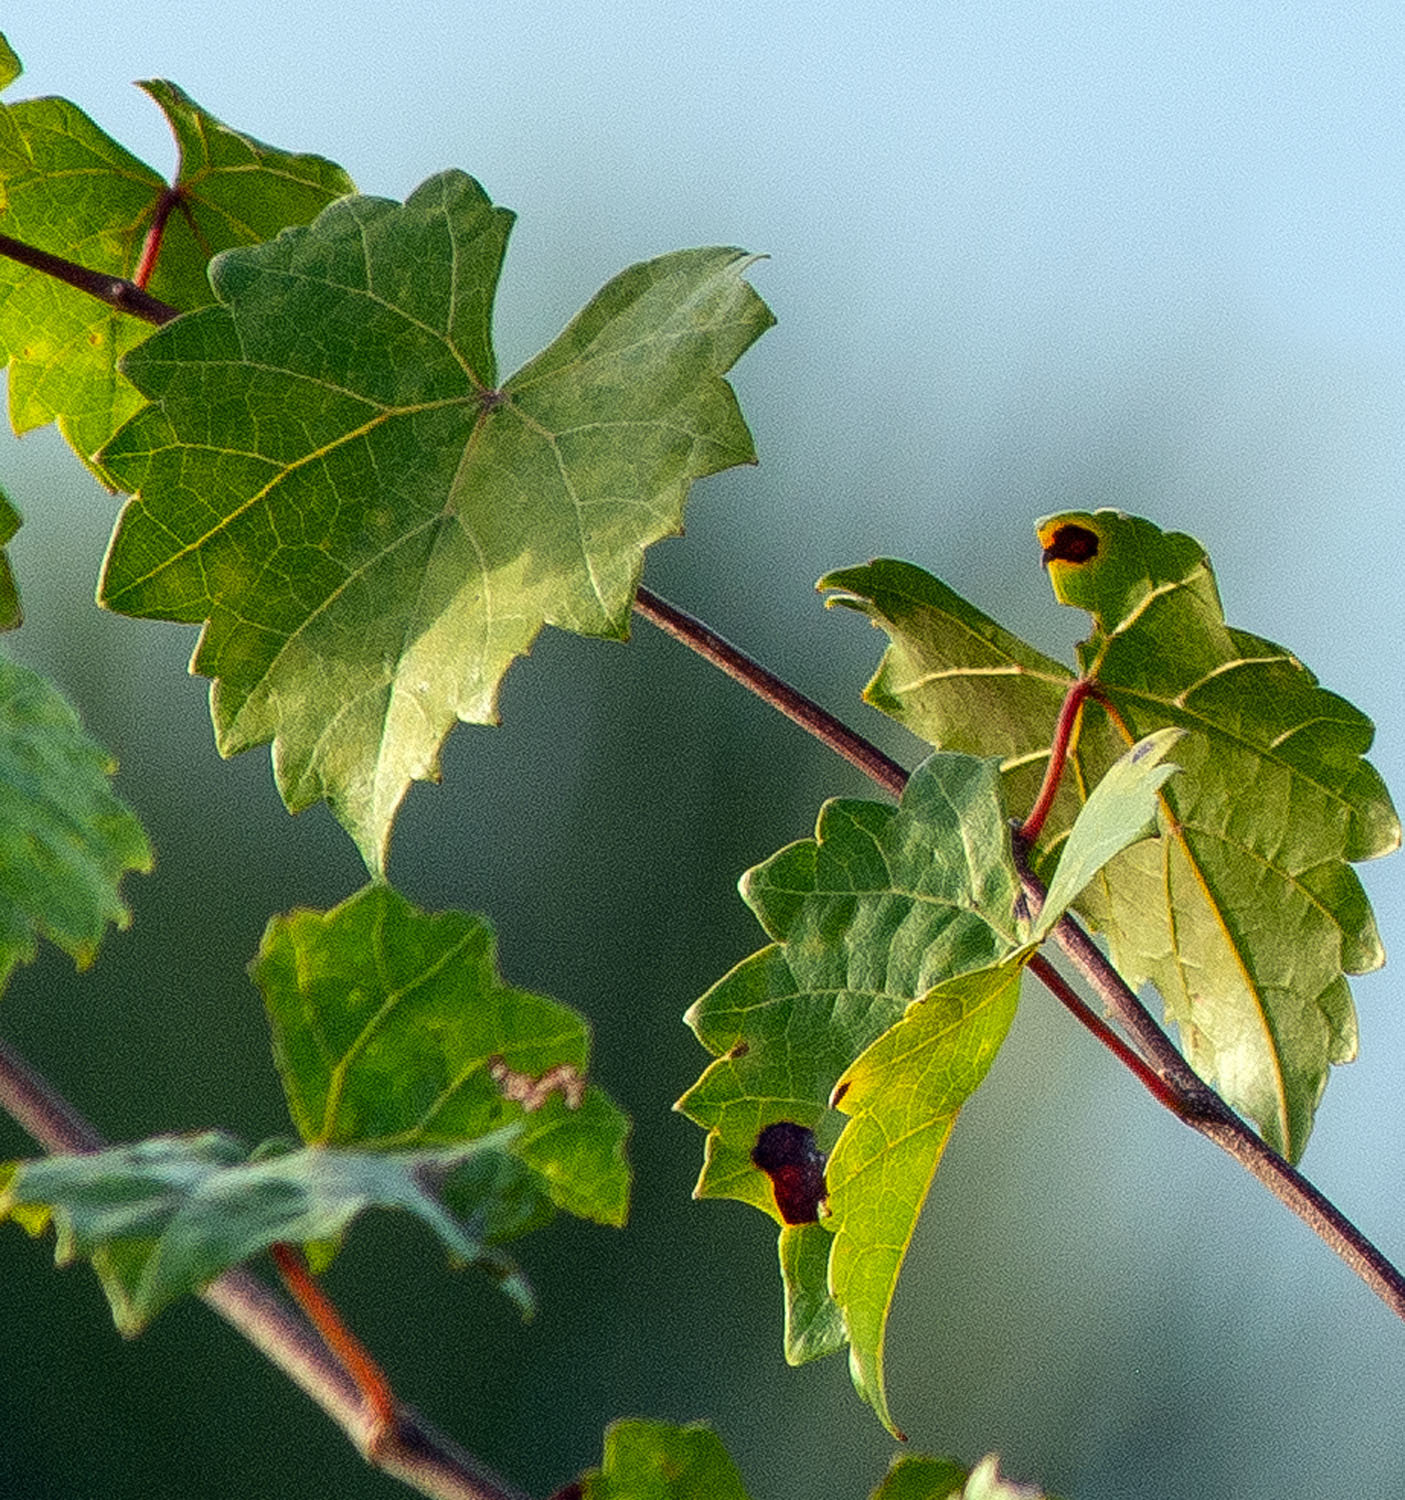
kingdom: Plantae
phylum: Tracheophyta
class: Magnoliopsida
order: Vitales
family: Vitaceae
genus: Vitis
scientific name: Vitis rotundifolia
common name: Muscadine grape
